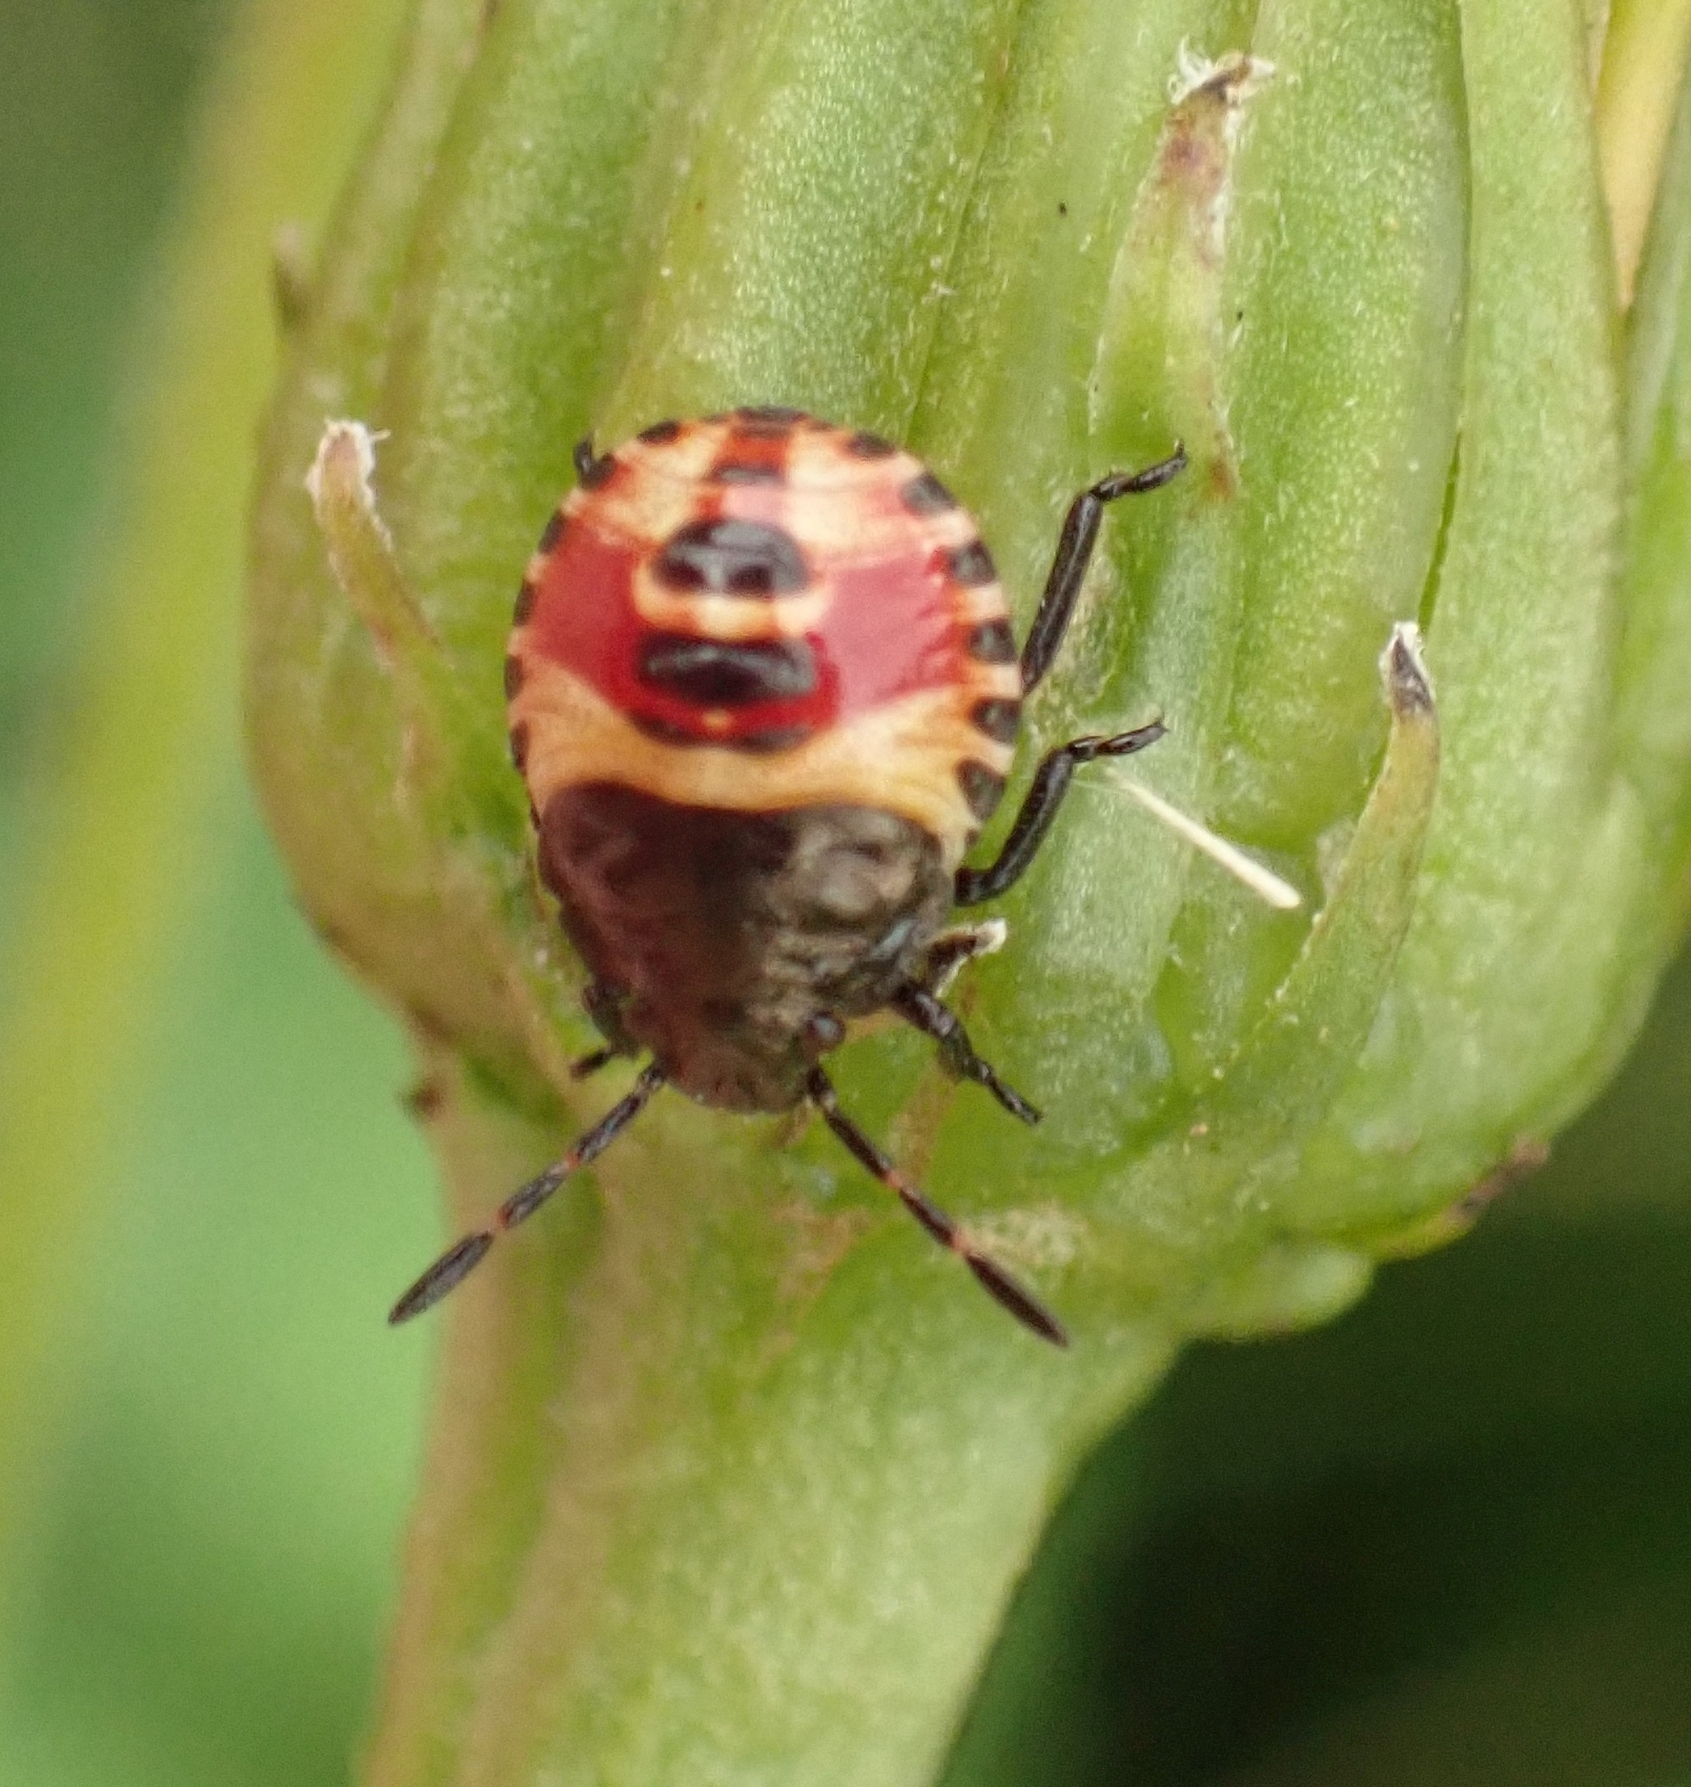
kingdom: Animalia
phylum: Arthropoda
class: Insecta
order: Hemiptera
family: Pentatomidae
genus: Carpocoris
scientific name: Carpocoris
